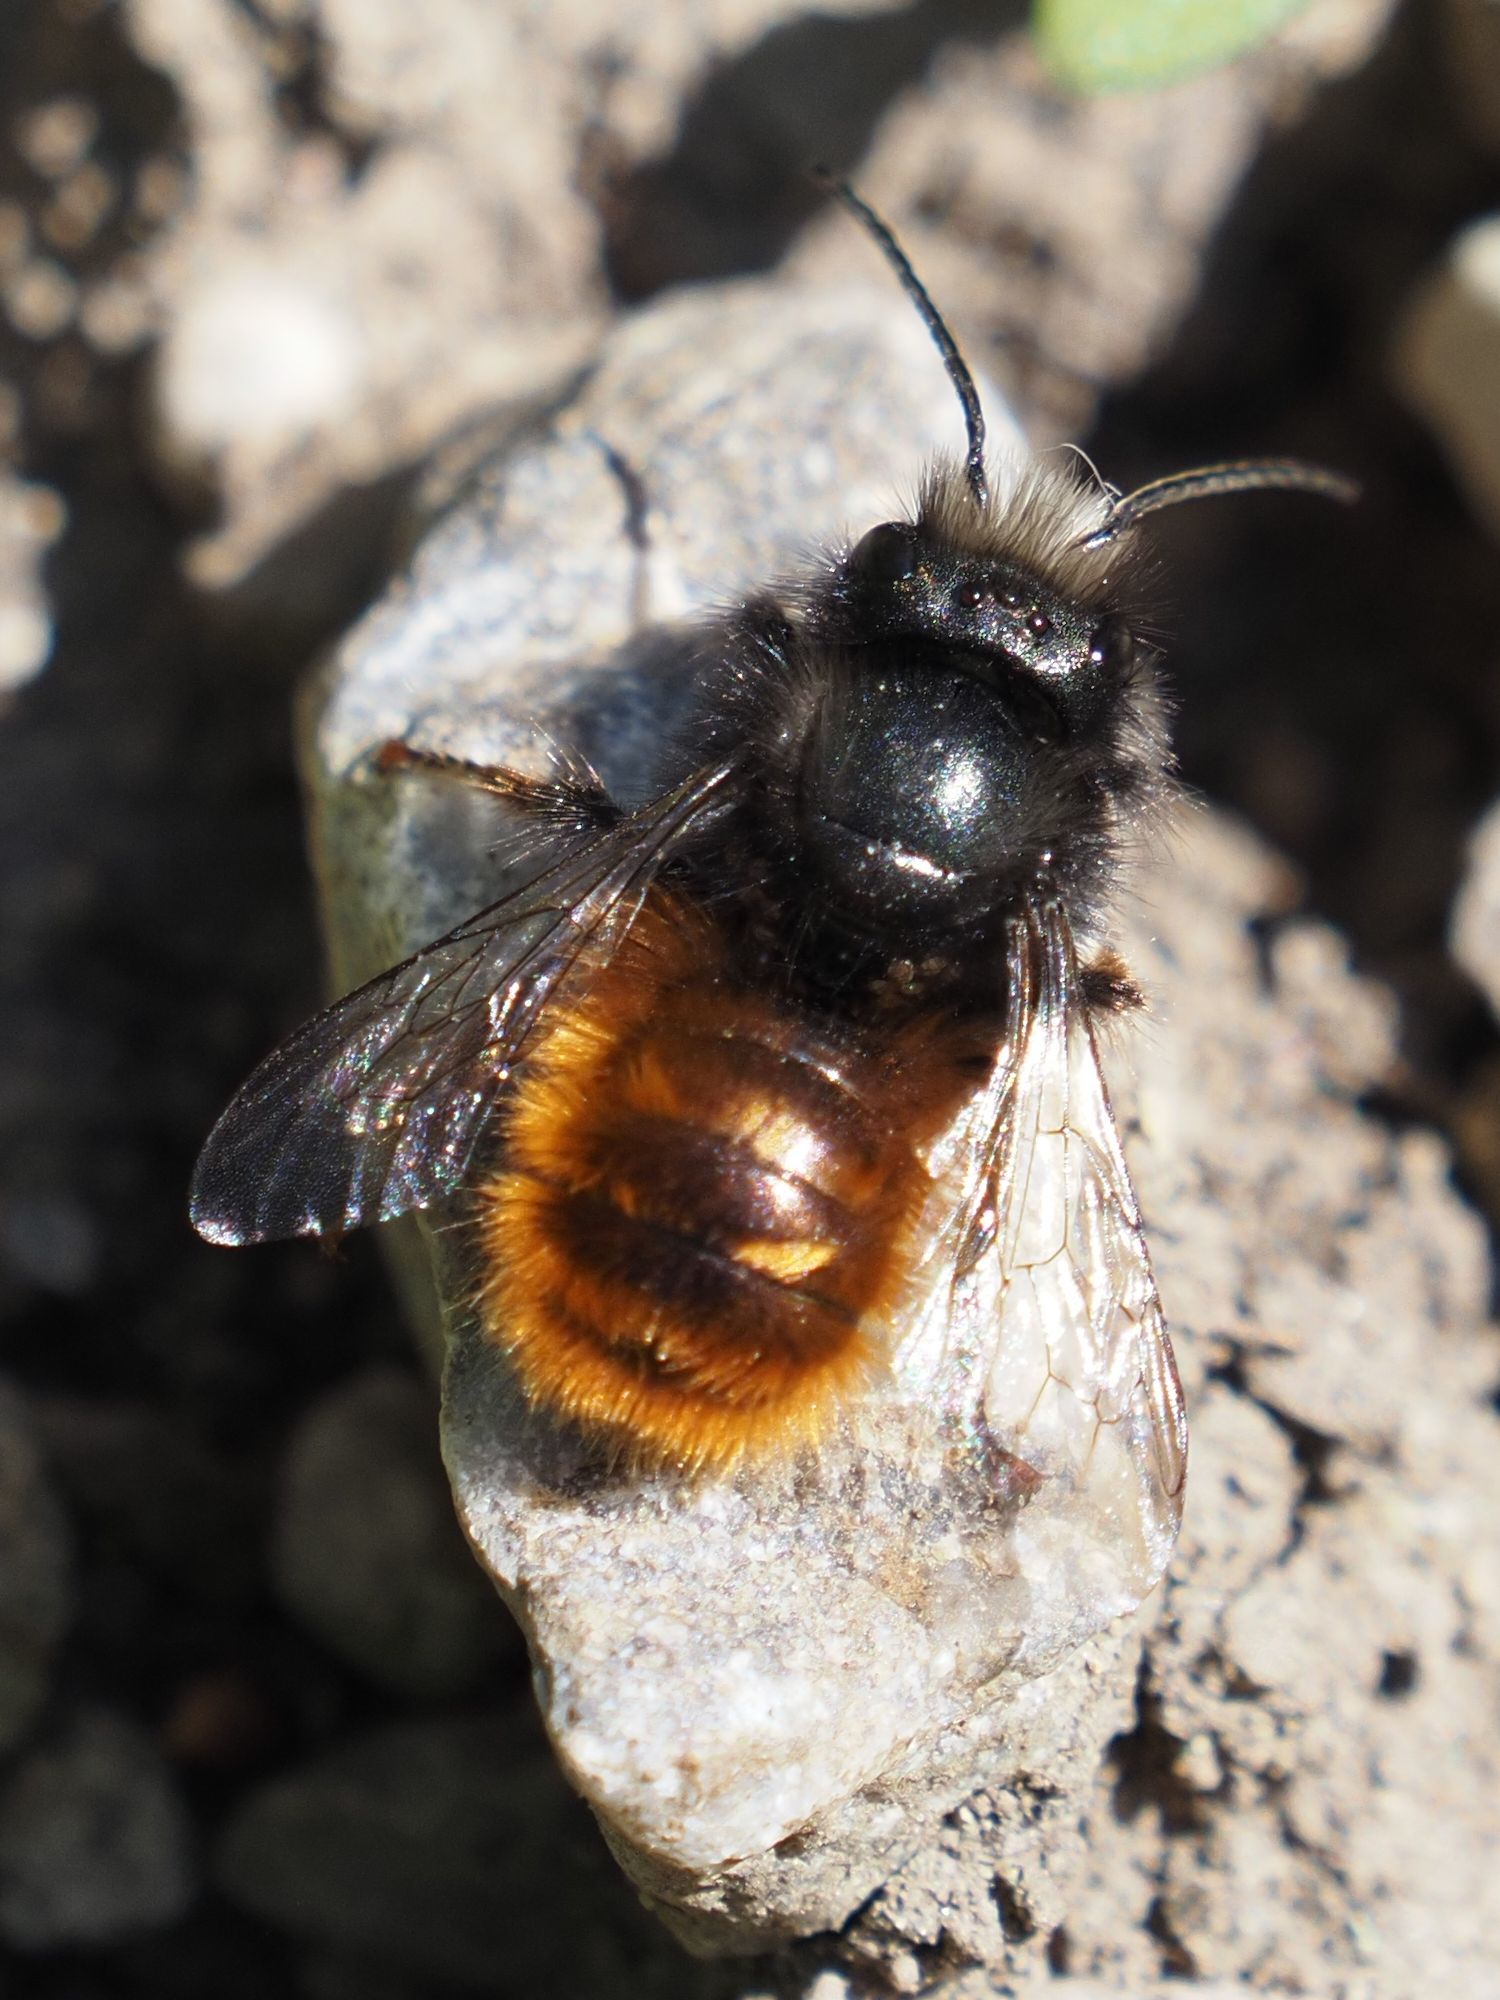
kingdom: Animalia
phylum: Arthropoda
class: Insecta
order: Hymenoptera
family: Megachilidae
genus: Osmia
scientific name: Osmia cornuta
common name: Mason bee
